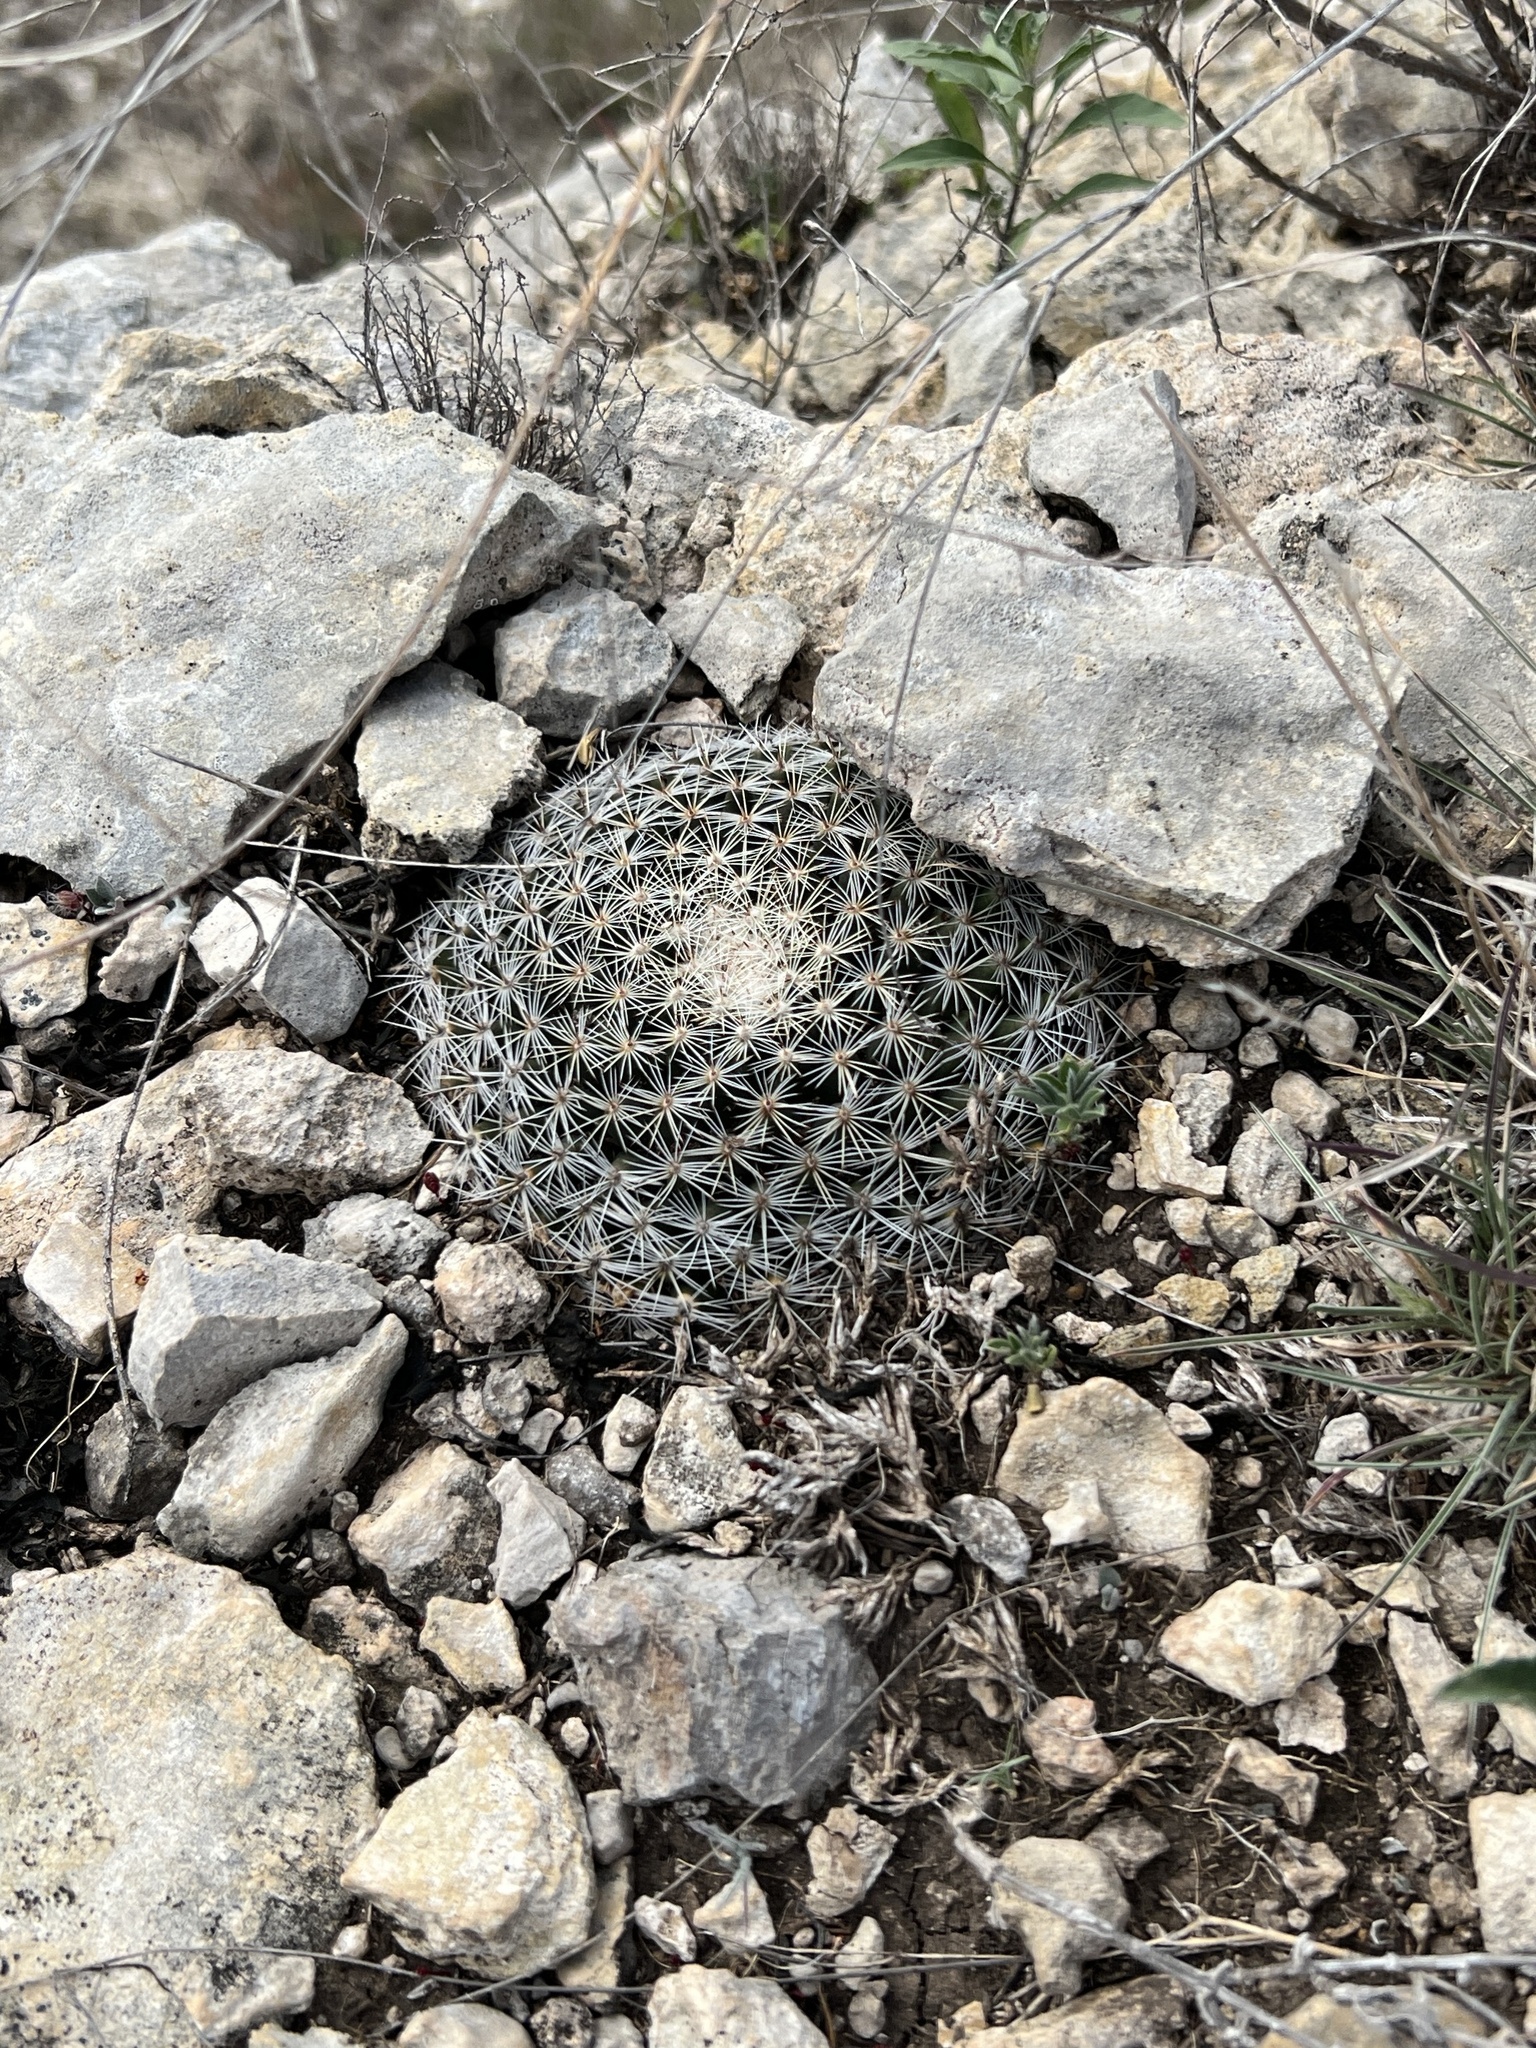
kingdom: Plantae
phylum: Tracheophyta
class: Magnoliopsida
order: Caryophyllales
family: Cactaceae
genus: Mammillaria
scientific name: Mammillaria heyderi
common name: Little nipple cactus
